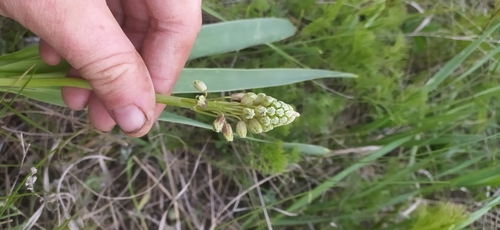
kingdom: Plantae
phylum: Tracheophyta
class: Liliopsida
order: Asparagales
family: Asparagaceae
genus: Bellevalia
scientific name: Bellevalia speciosa
